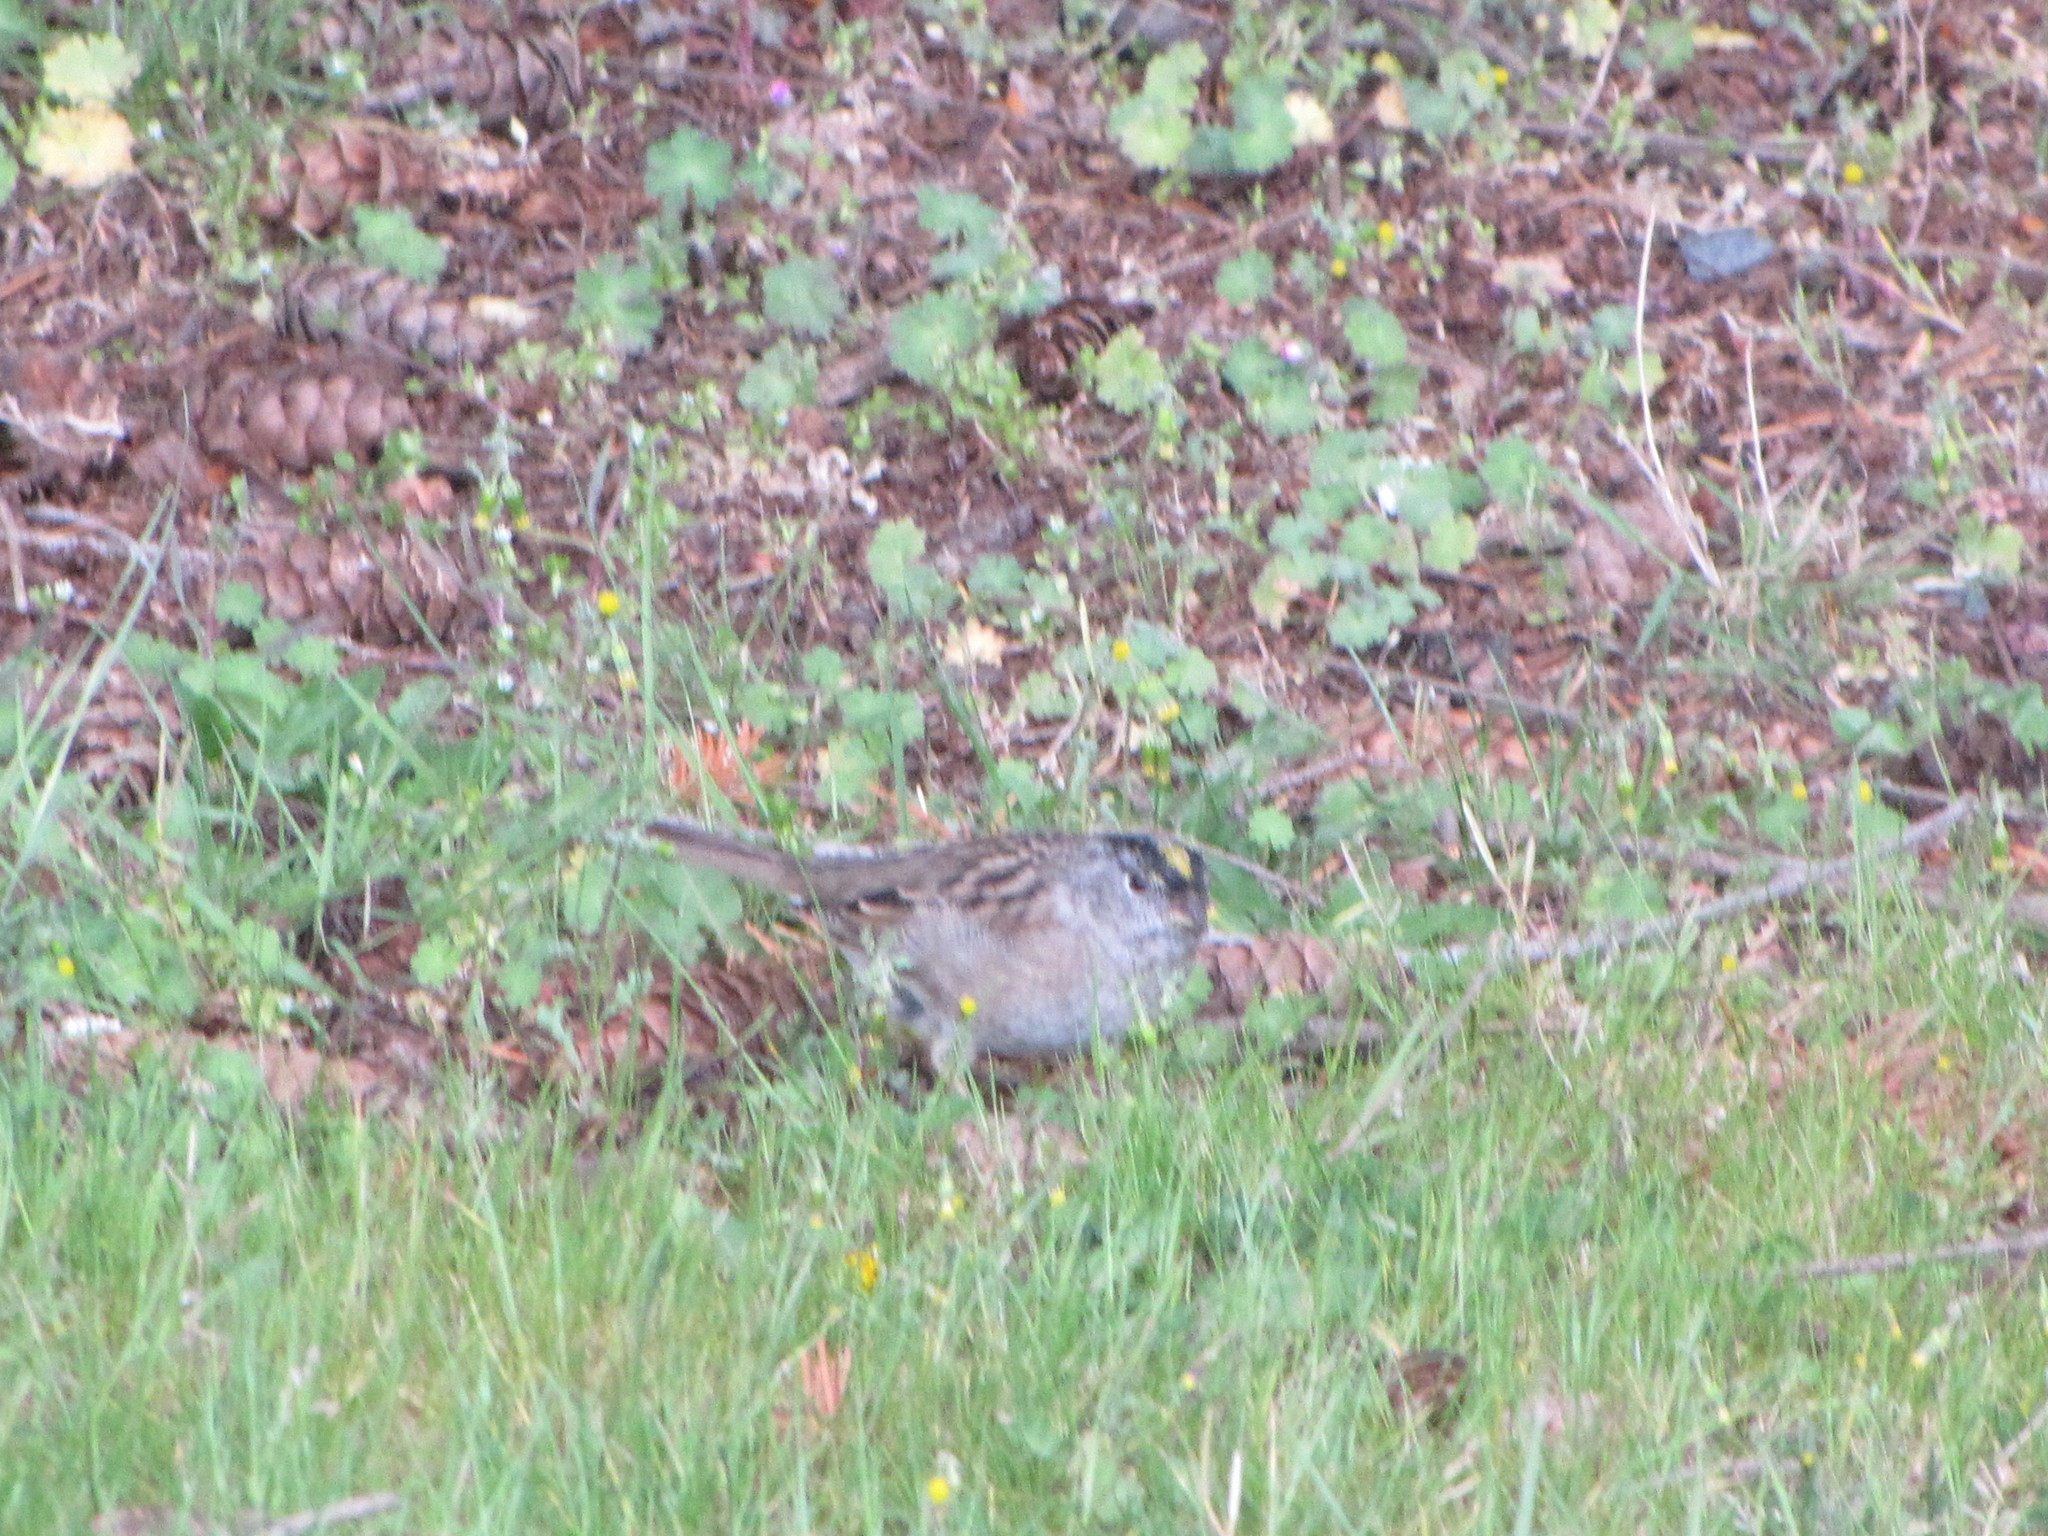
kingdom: Animalia
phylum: Chordata
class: Aves
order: Passeriformes
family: Passerellidae
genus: Zonotrichia
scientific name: Zonotrichia atricapilla
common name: Golden-crowned sparrow
